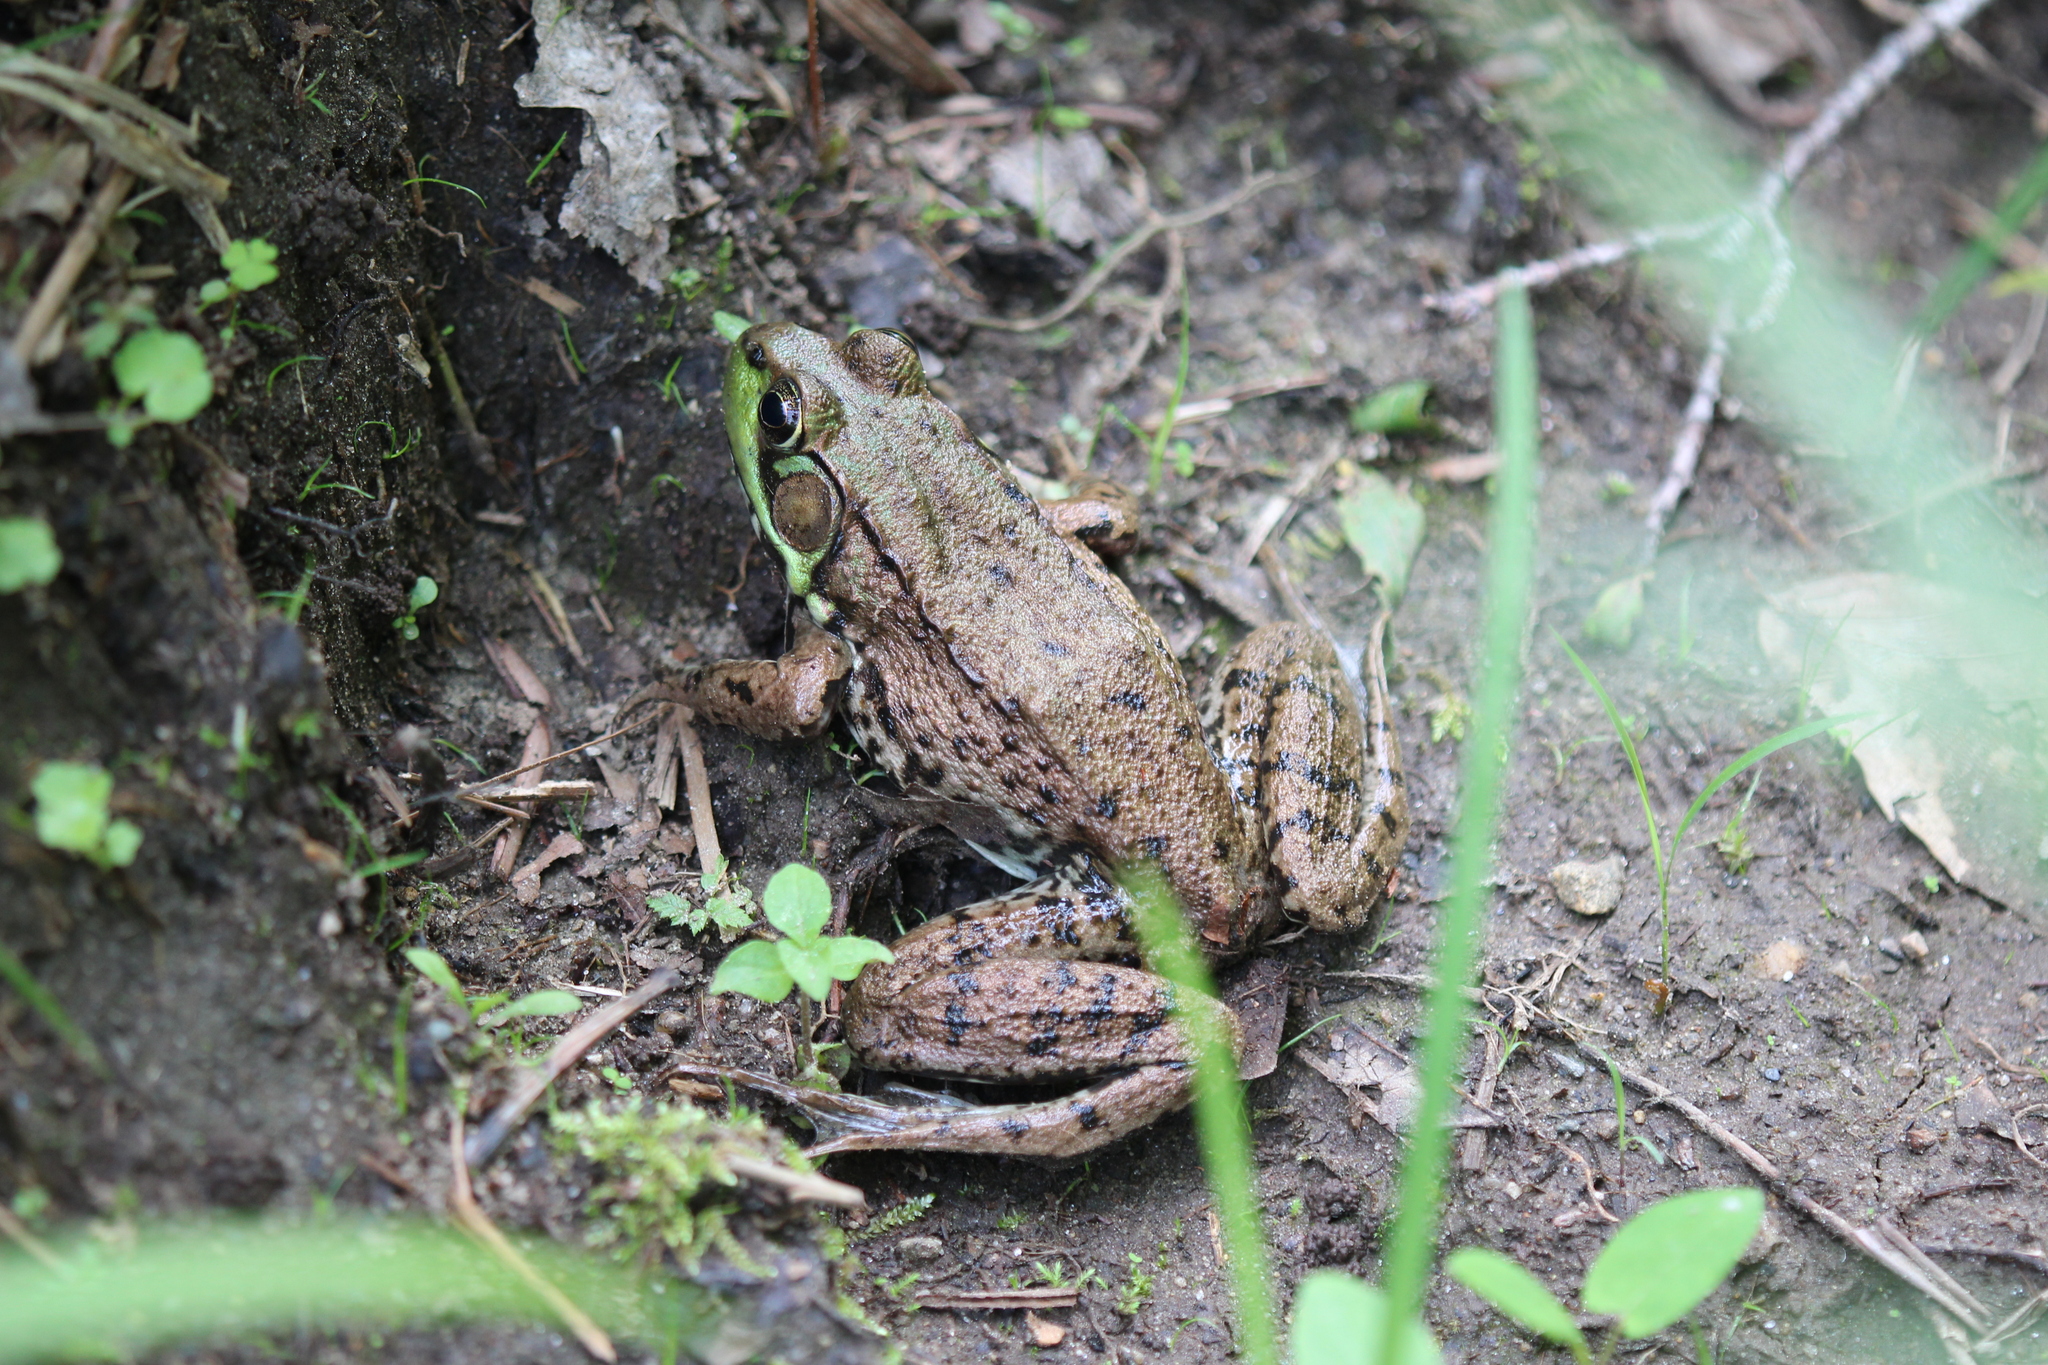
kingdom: Animalia
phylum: Chordata
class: Amphibia
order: Anura
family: Ranidae
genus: Lithobates
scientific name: Lithobates clamitans
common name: Green frog
